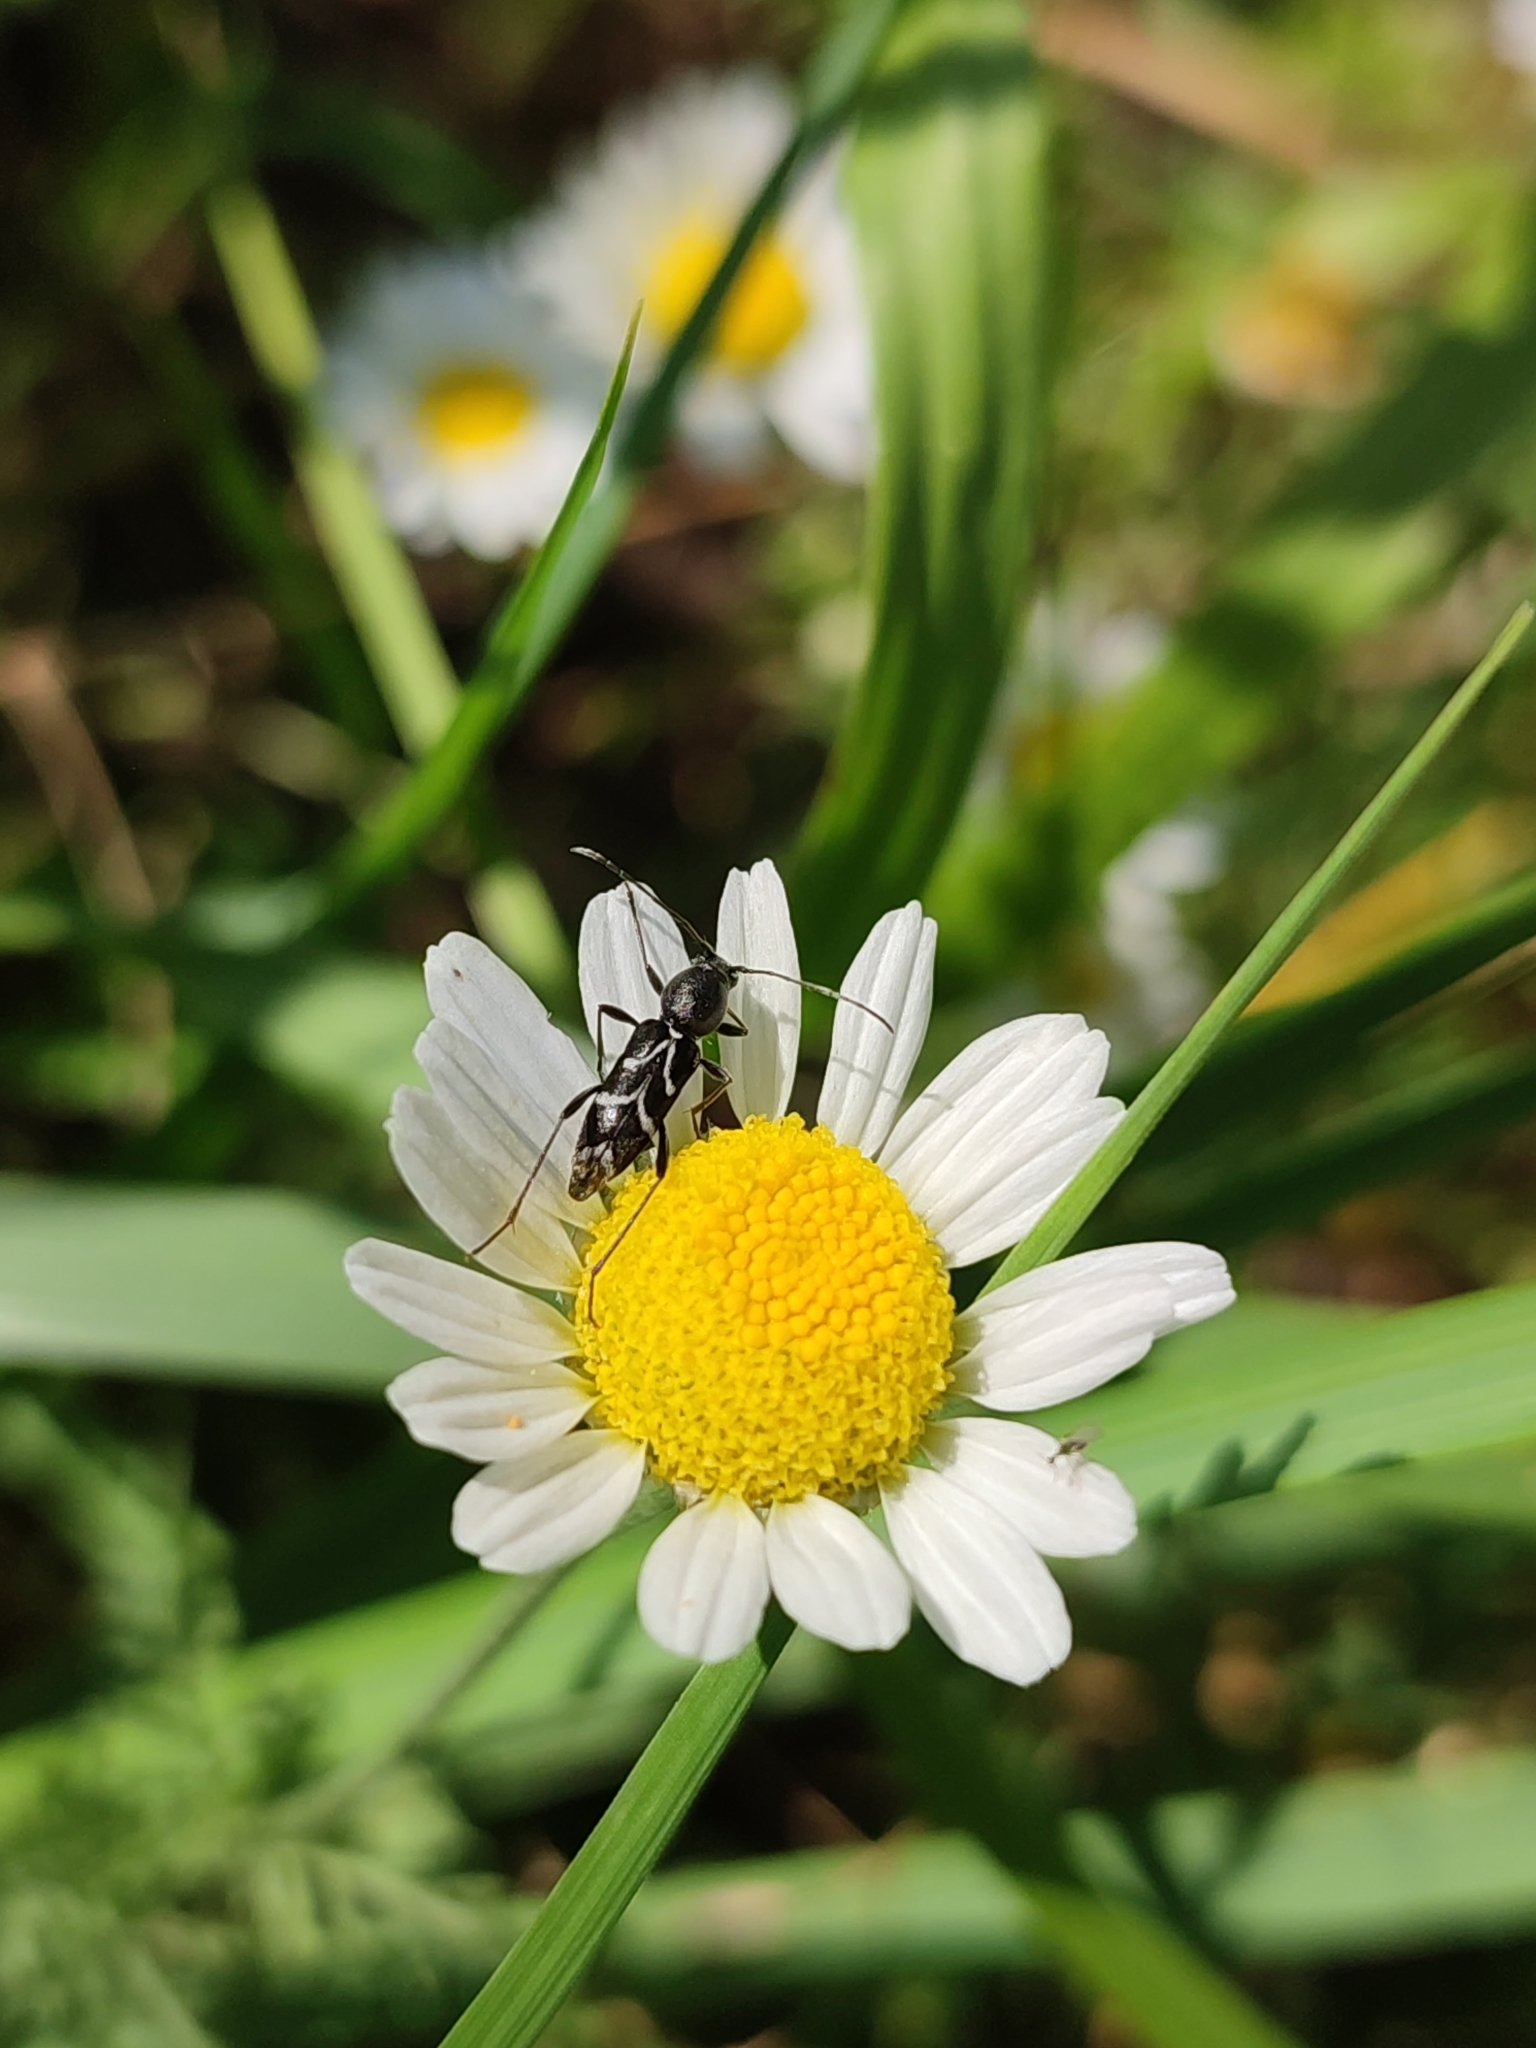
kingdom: Animalia
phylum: Arthropoda
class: Insecta
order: Coleoptera
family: Cerambycidae
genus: Chlorophorus
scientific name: Chlorophorus sartor
